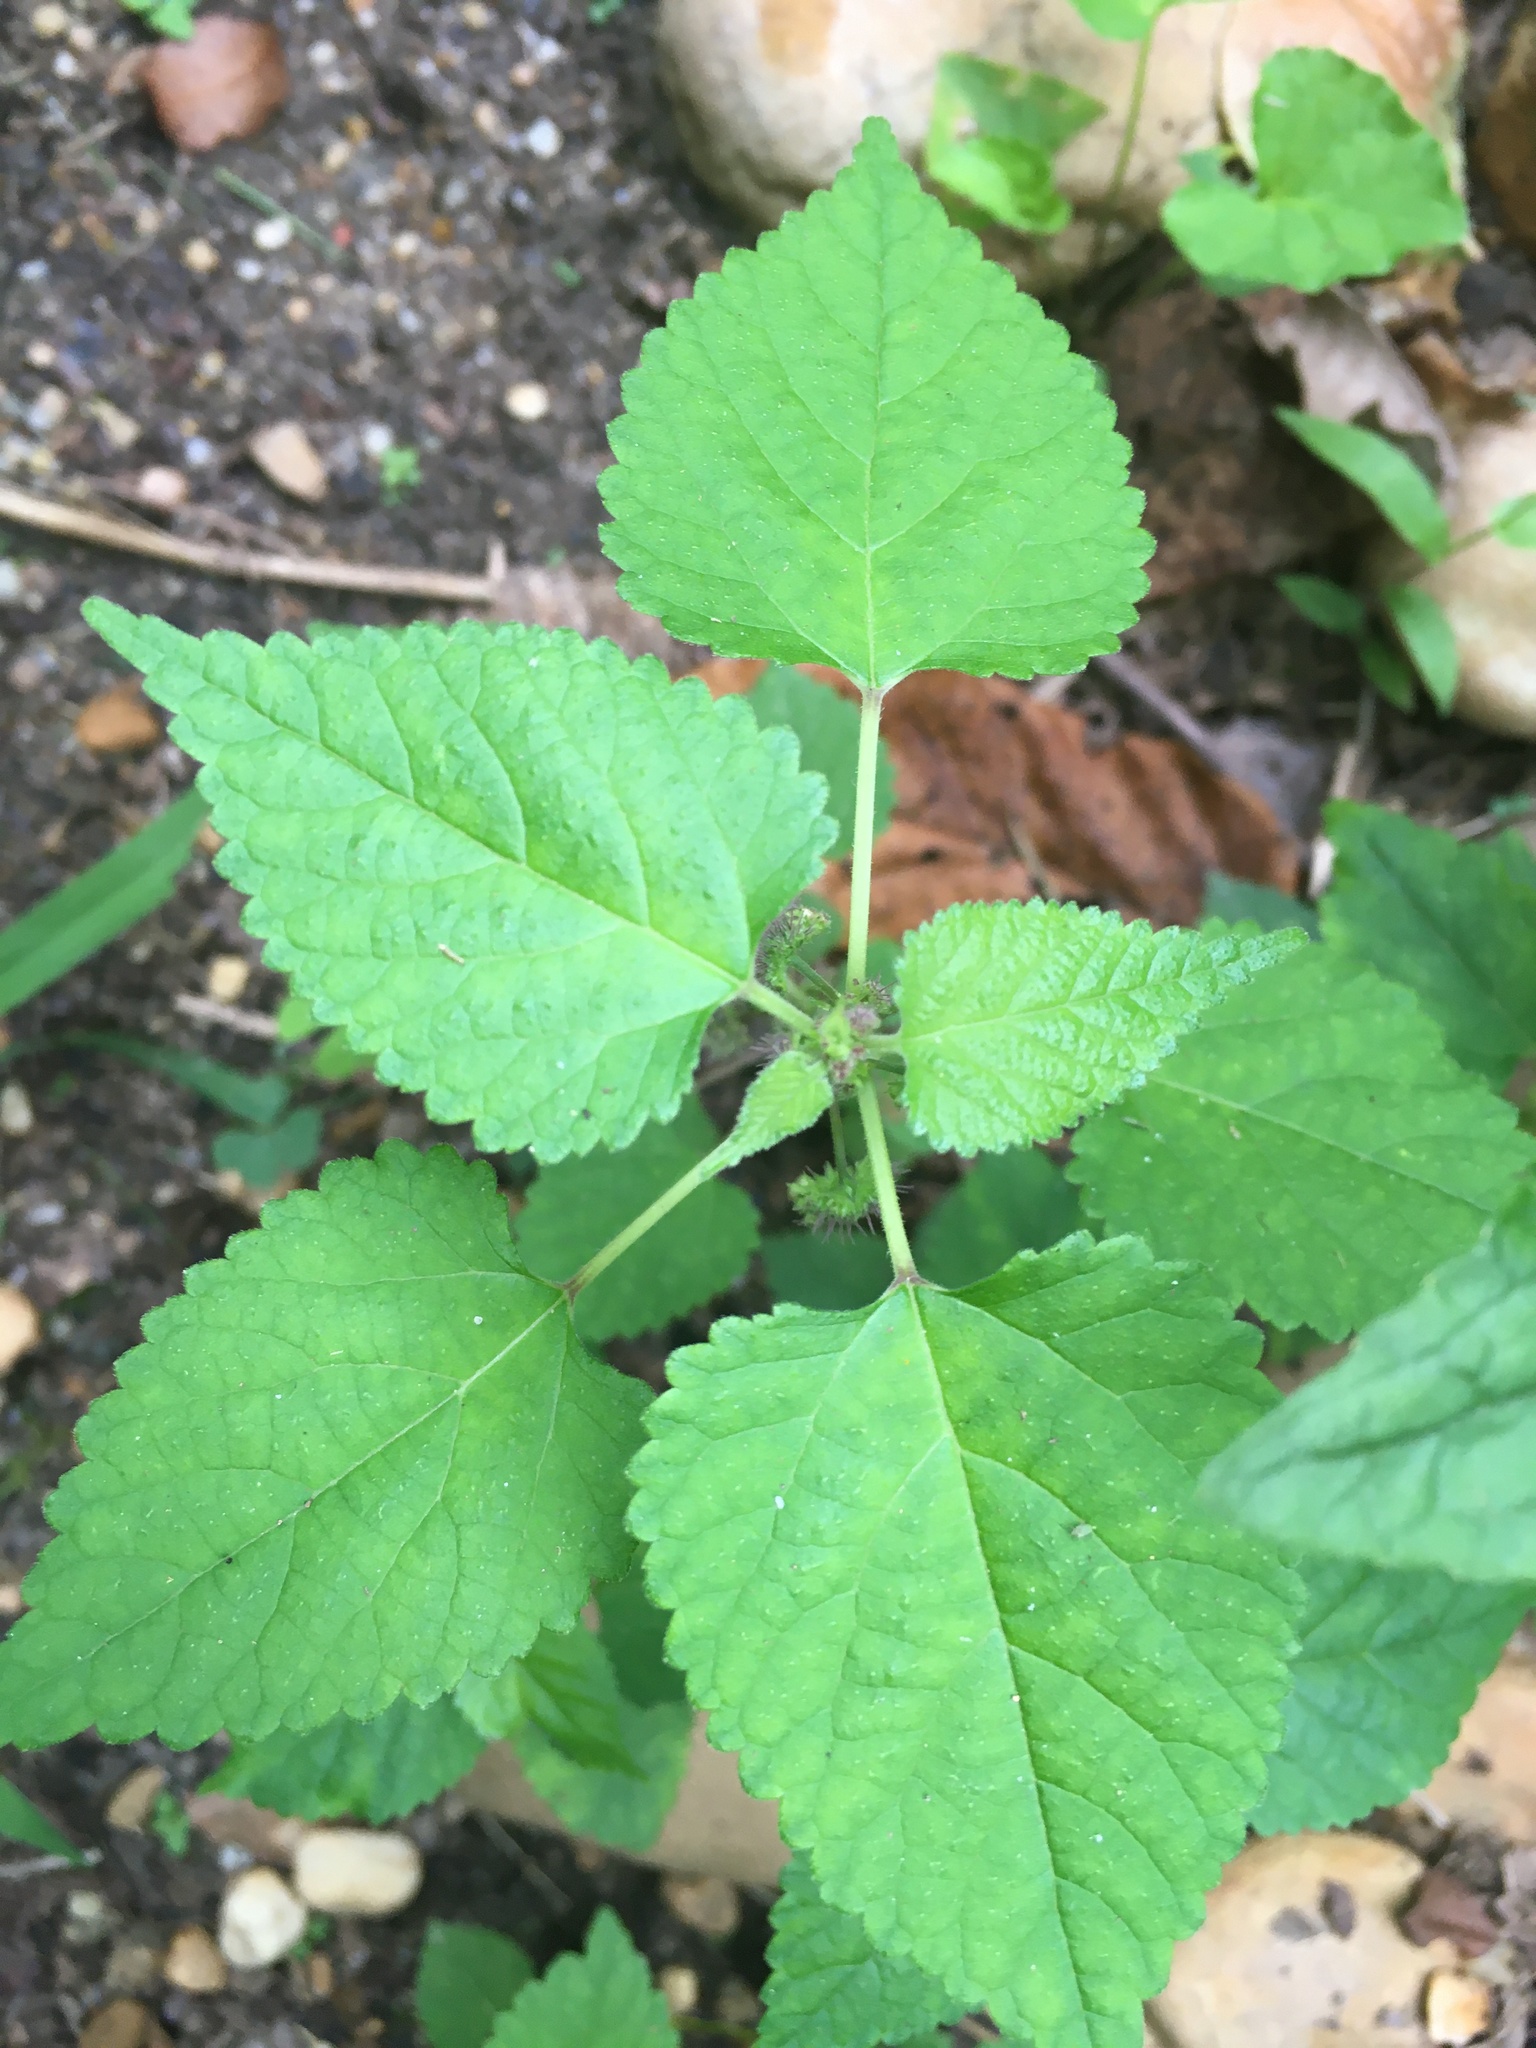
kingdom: Plantae
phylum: Tracheophyta
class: Magnoliopsida
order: Rosales
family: Moraceae
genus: Fatoua
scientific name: Fatoua villosa
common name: Hairy crabweed
